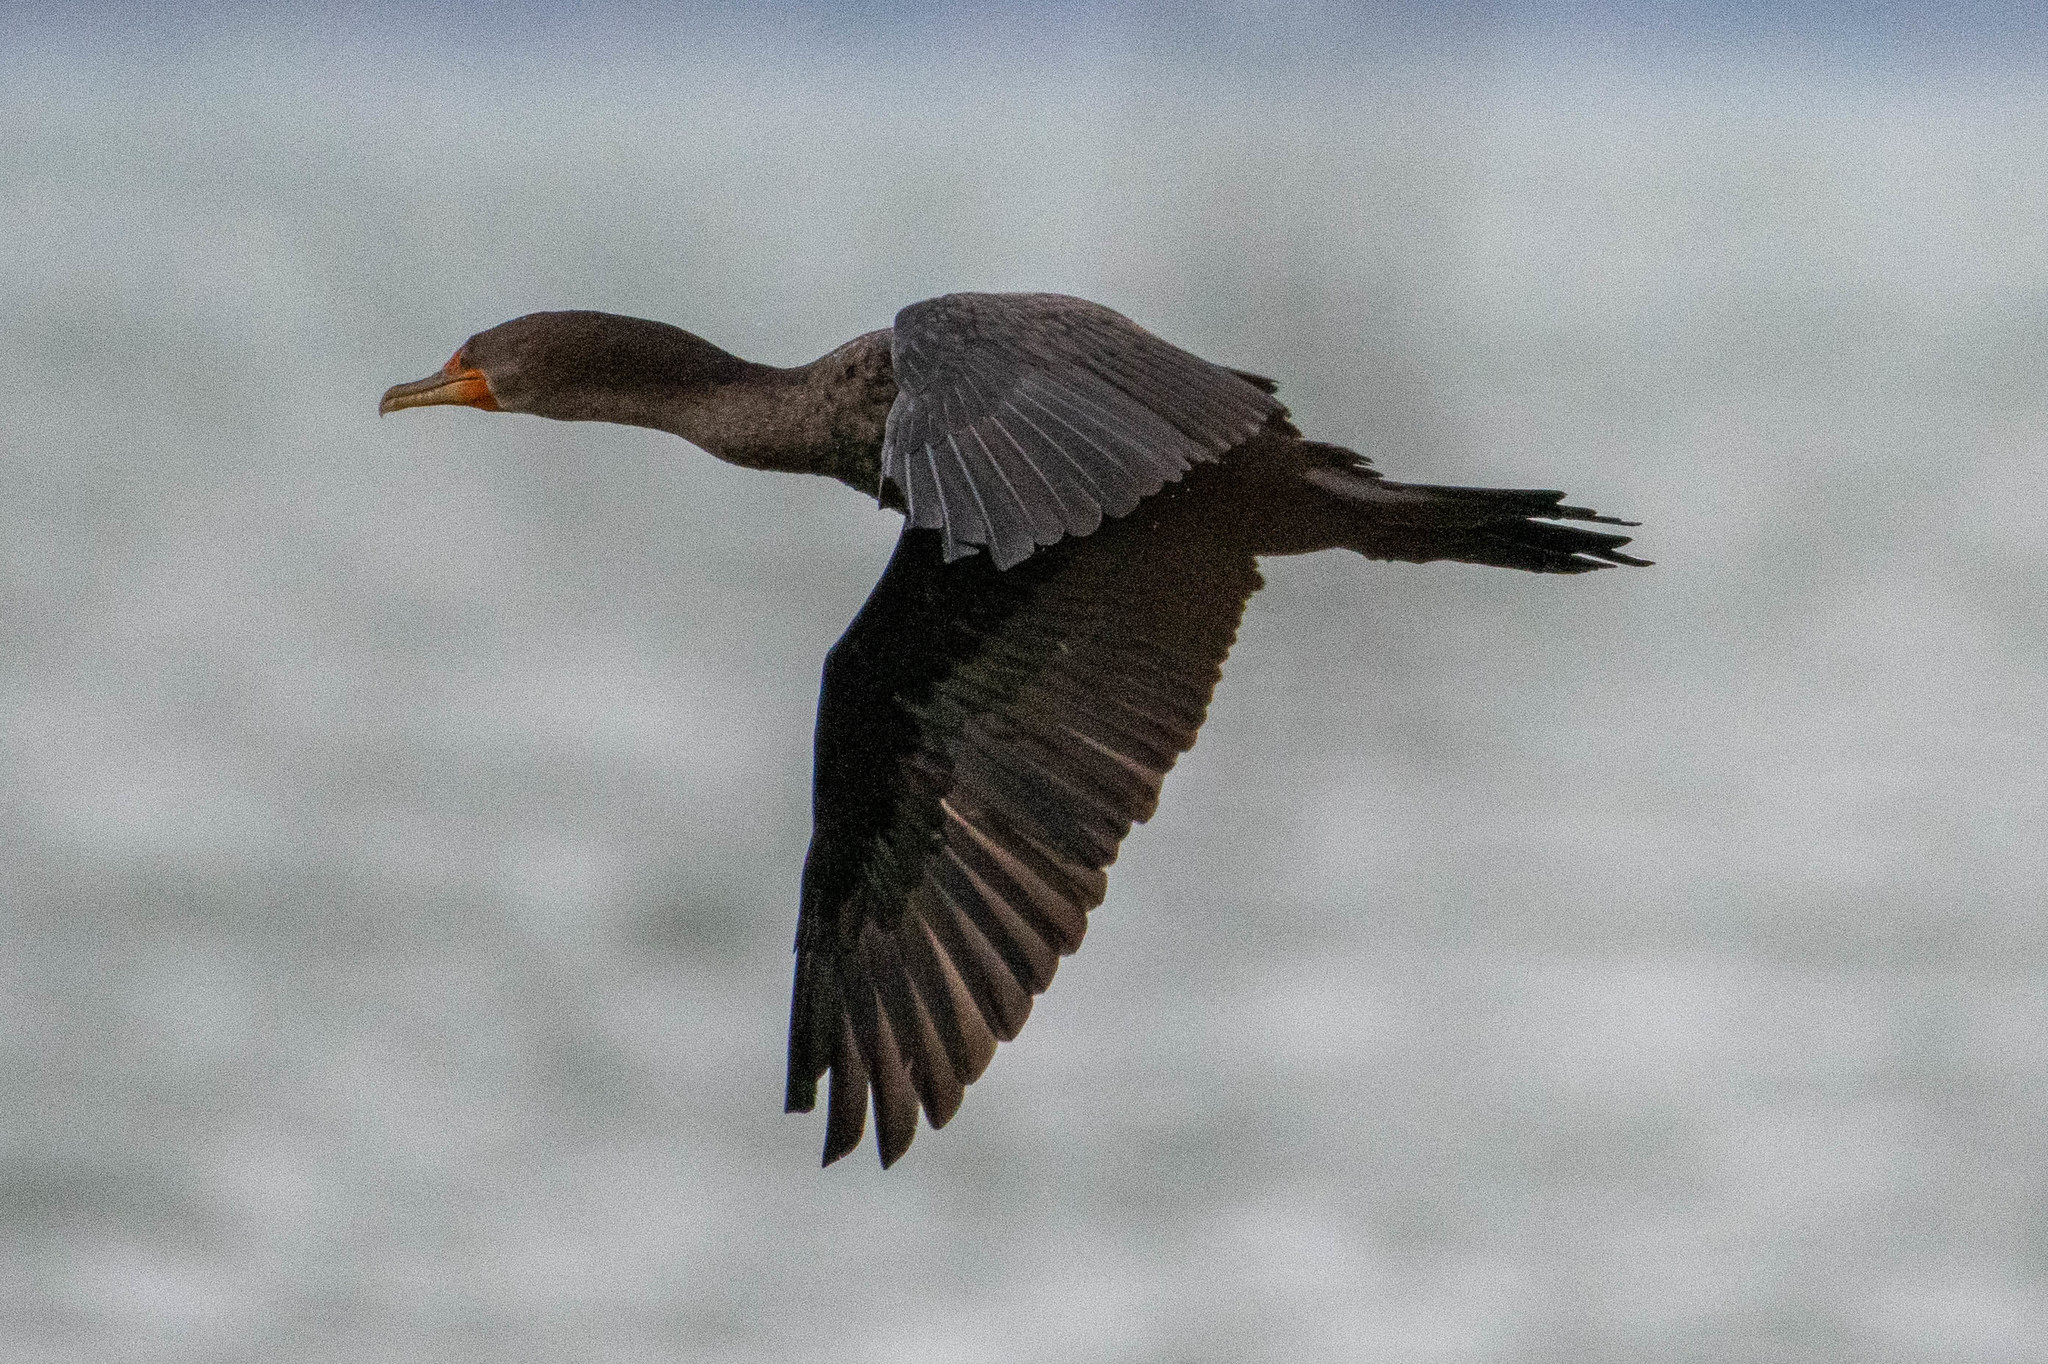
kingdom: Animalia
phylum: Chordata
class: Aves
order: Suliformes
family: Phalacrocoracidae
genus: Phalacrocorax
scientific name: Phalacrocorax auritus
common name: Double-crested cormorant
